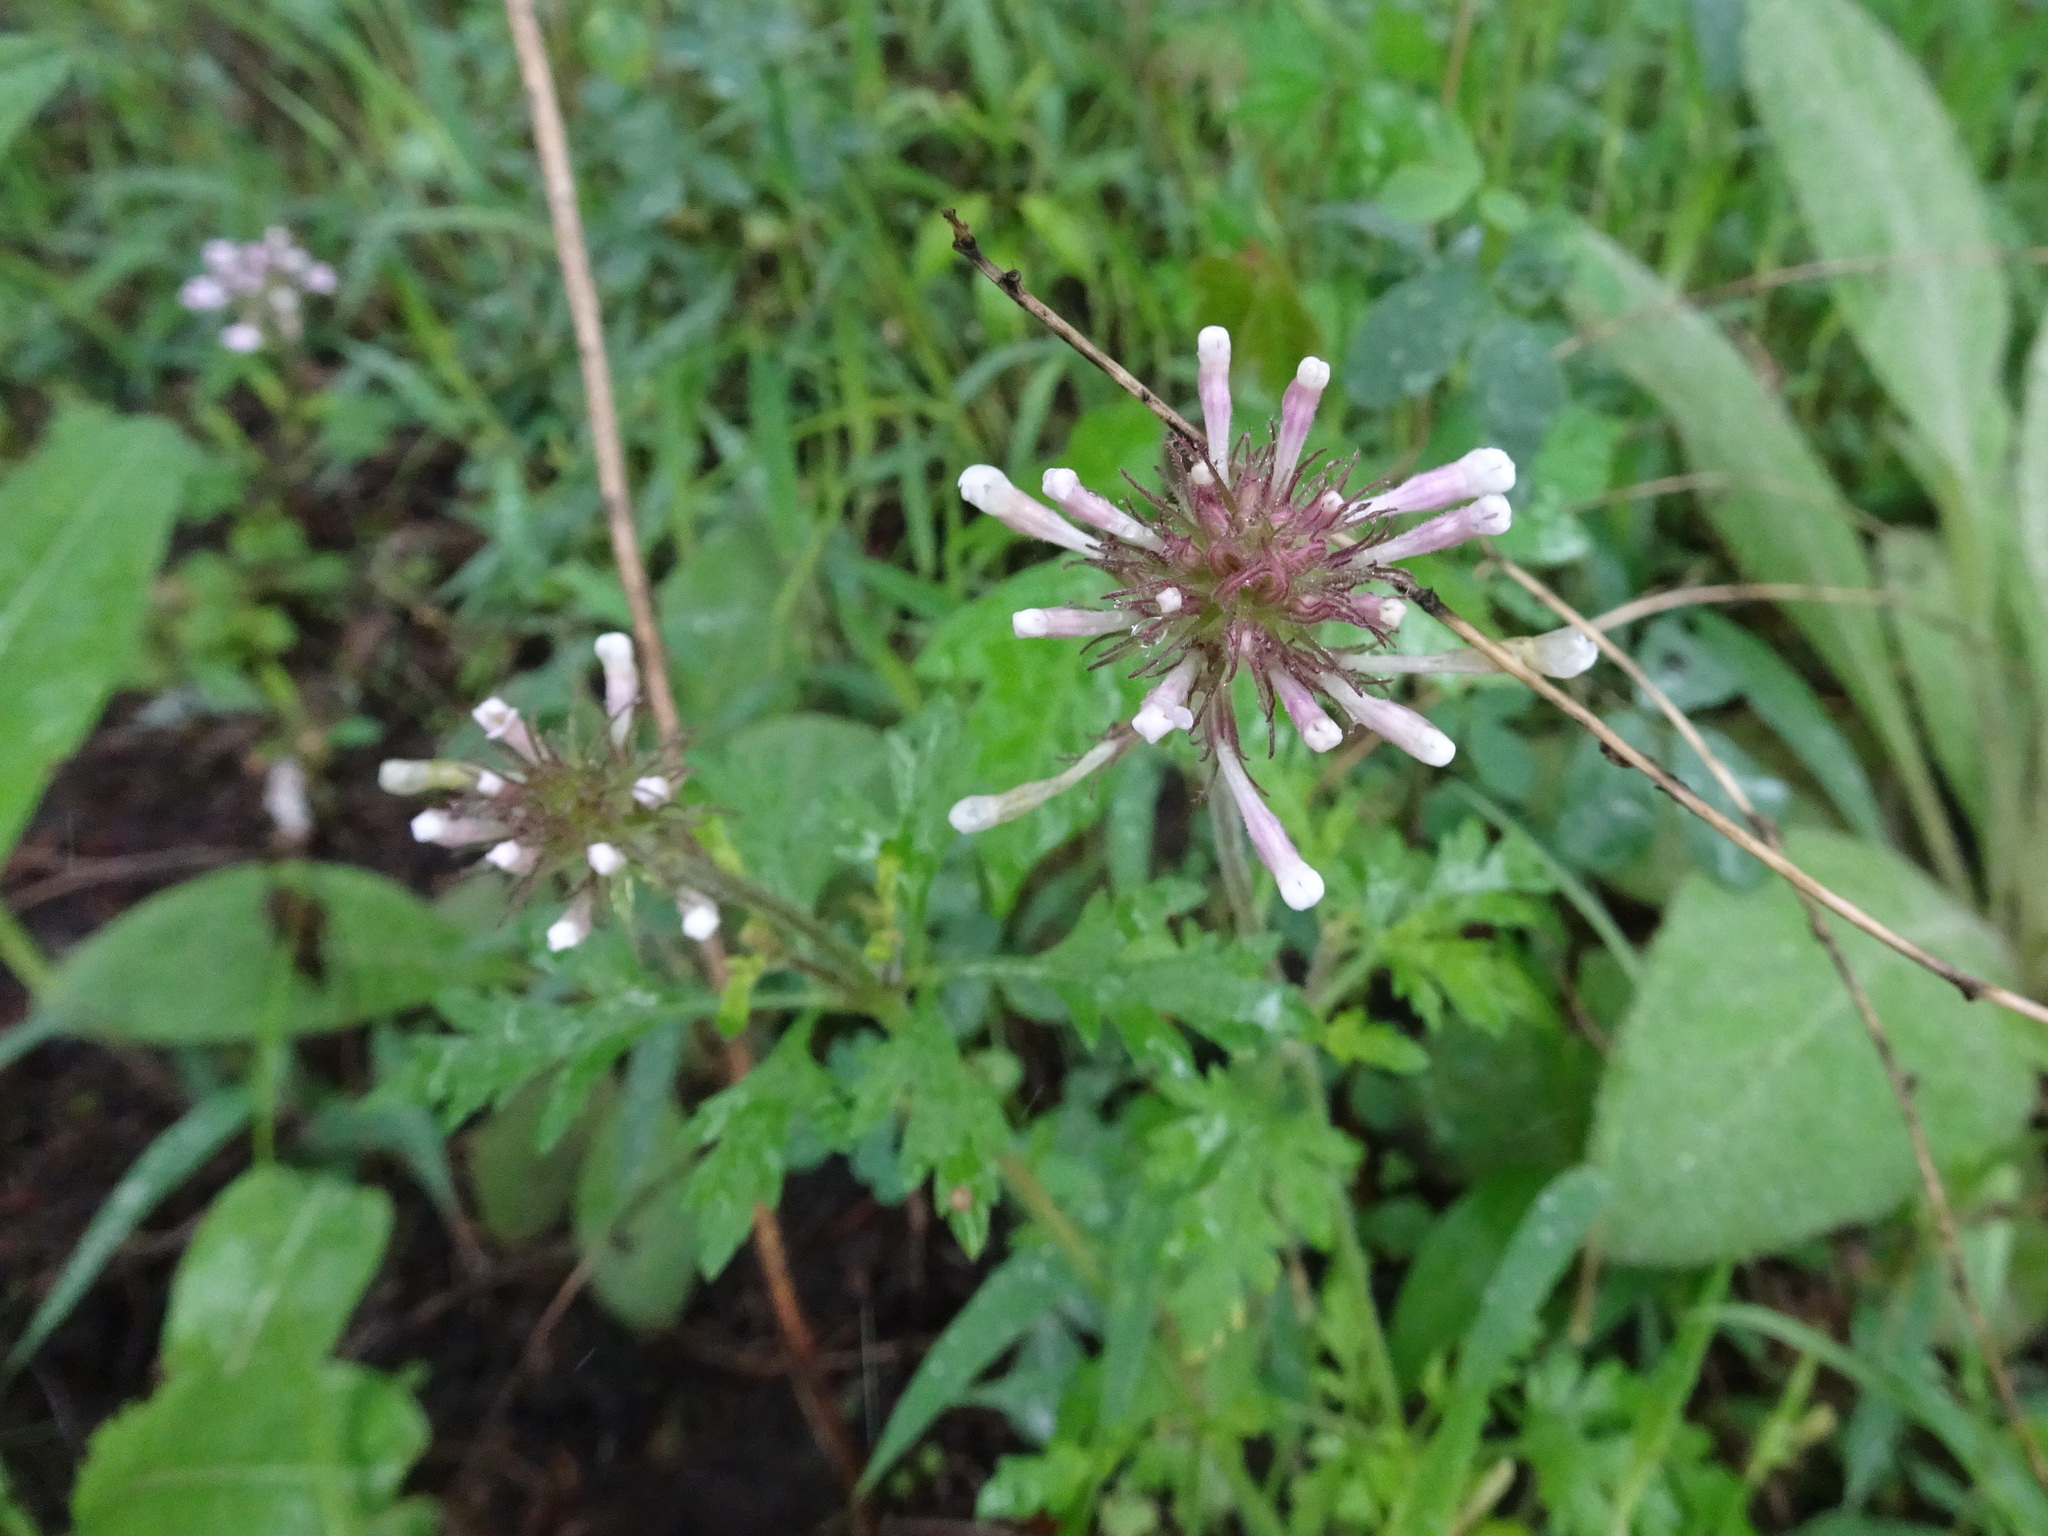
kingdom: Plantae
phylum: Tracheophyta
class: Magnoliopsida
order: Lamiales
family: Verbenaceae
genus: Verbena
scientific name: Verbena canadensis
